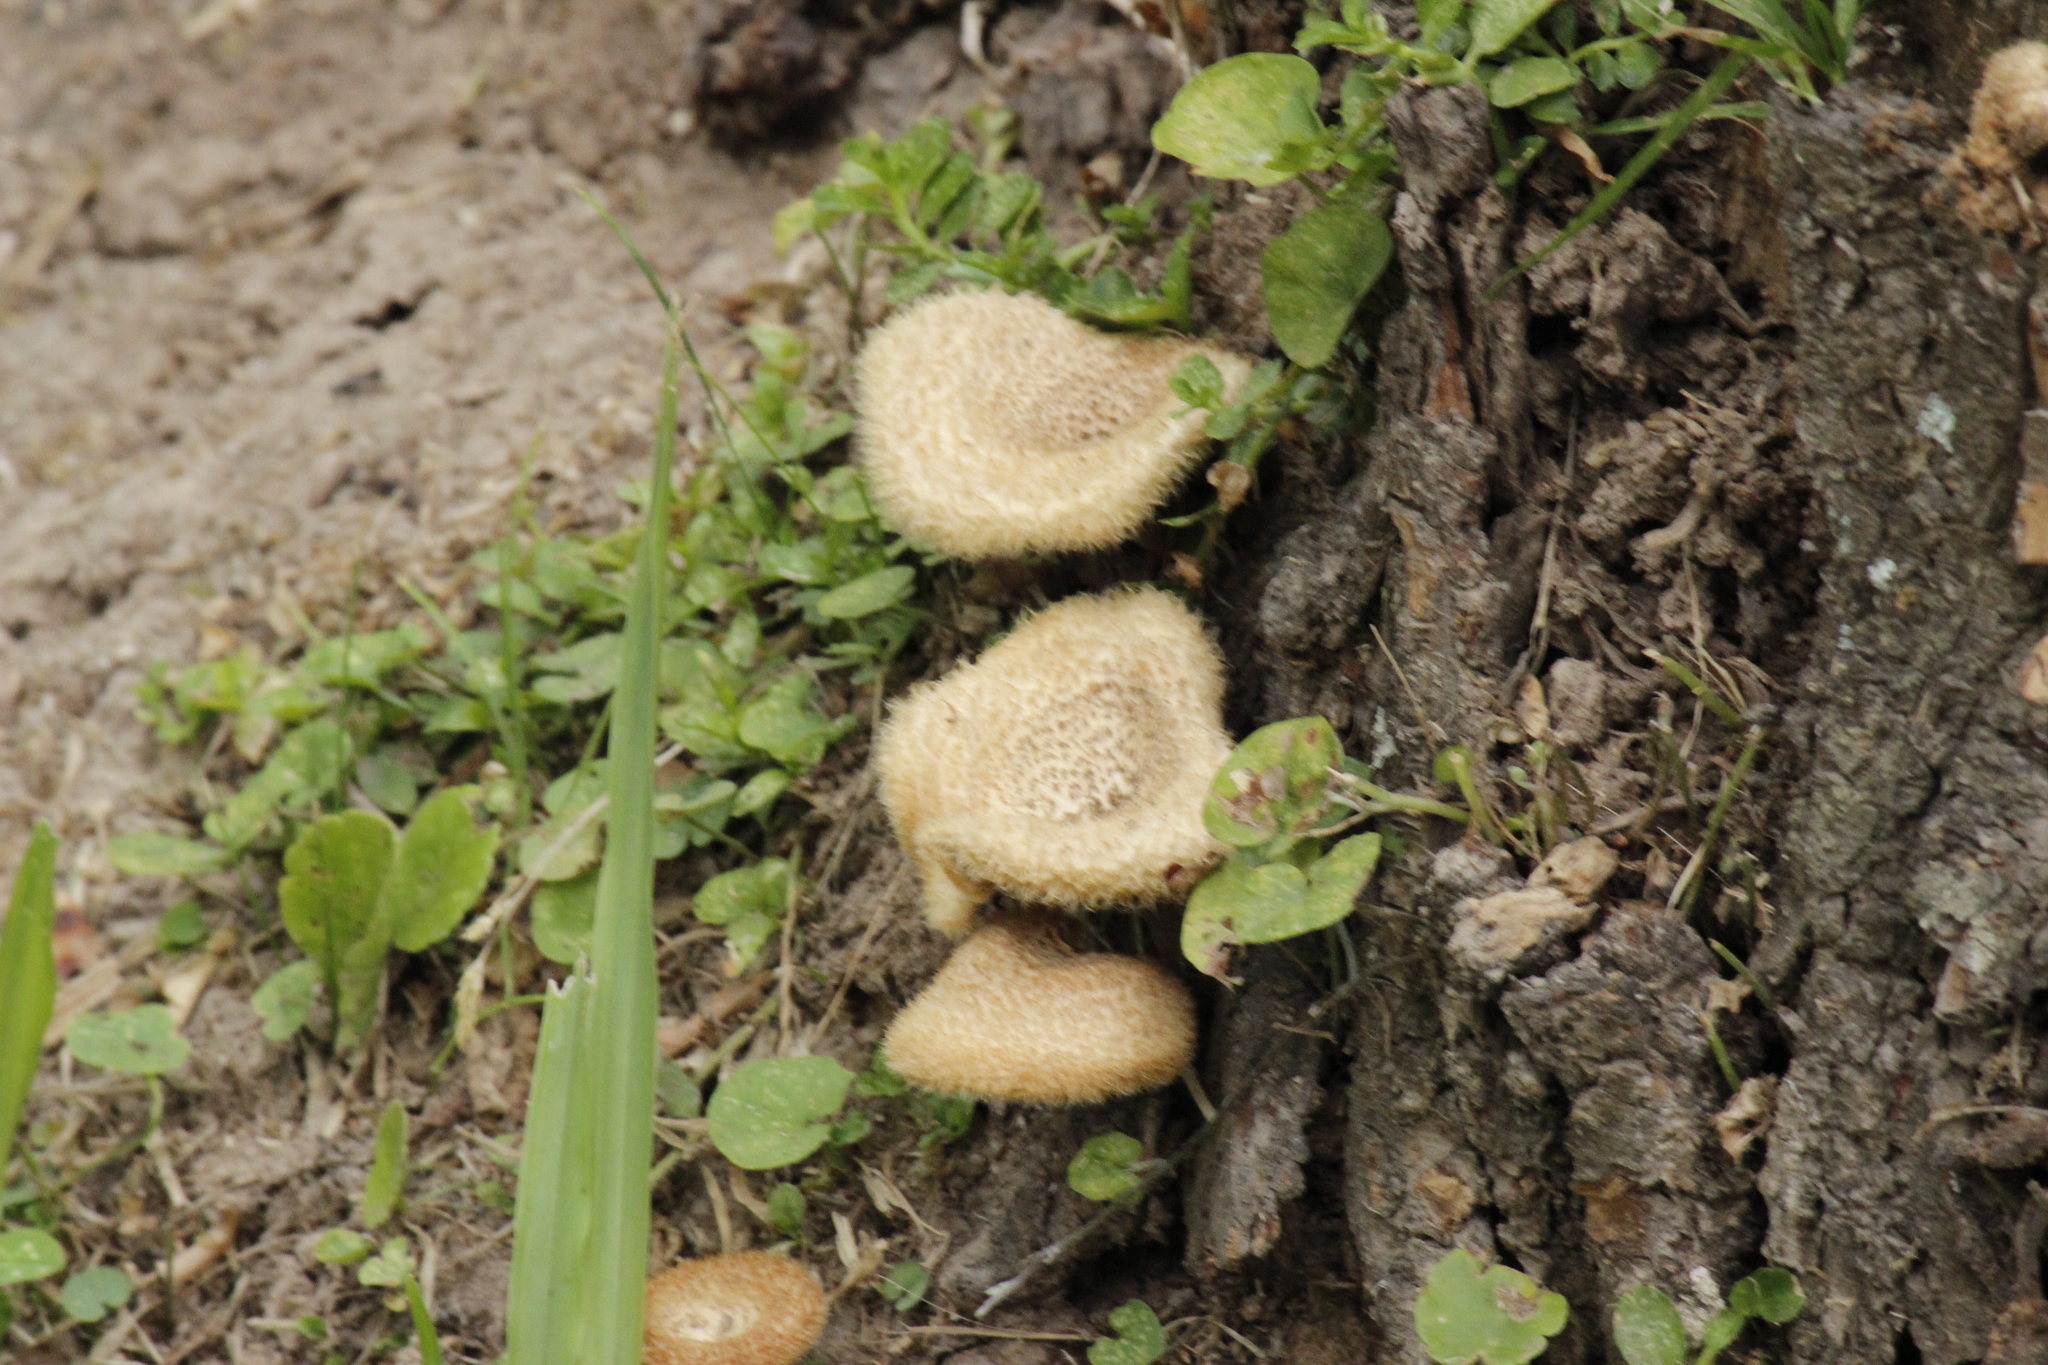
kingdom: Fungi
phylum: Basidiomycota
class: Agaricomycetes
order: Polyporales
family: Polyporaceae
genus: Lentinus
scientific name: Lentinus crinitus
